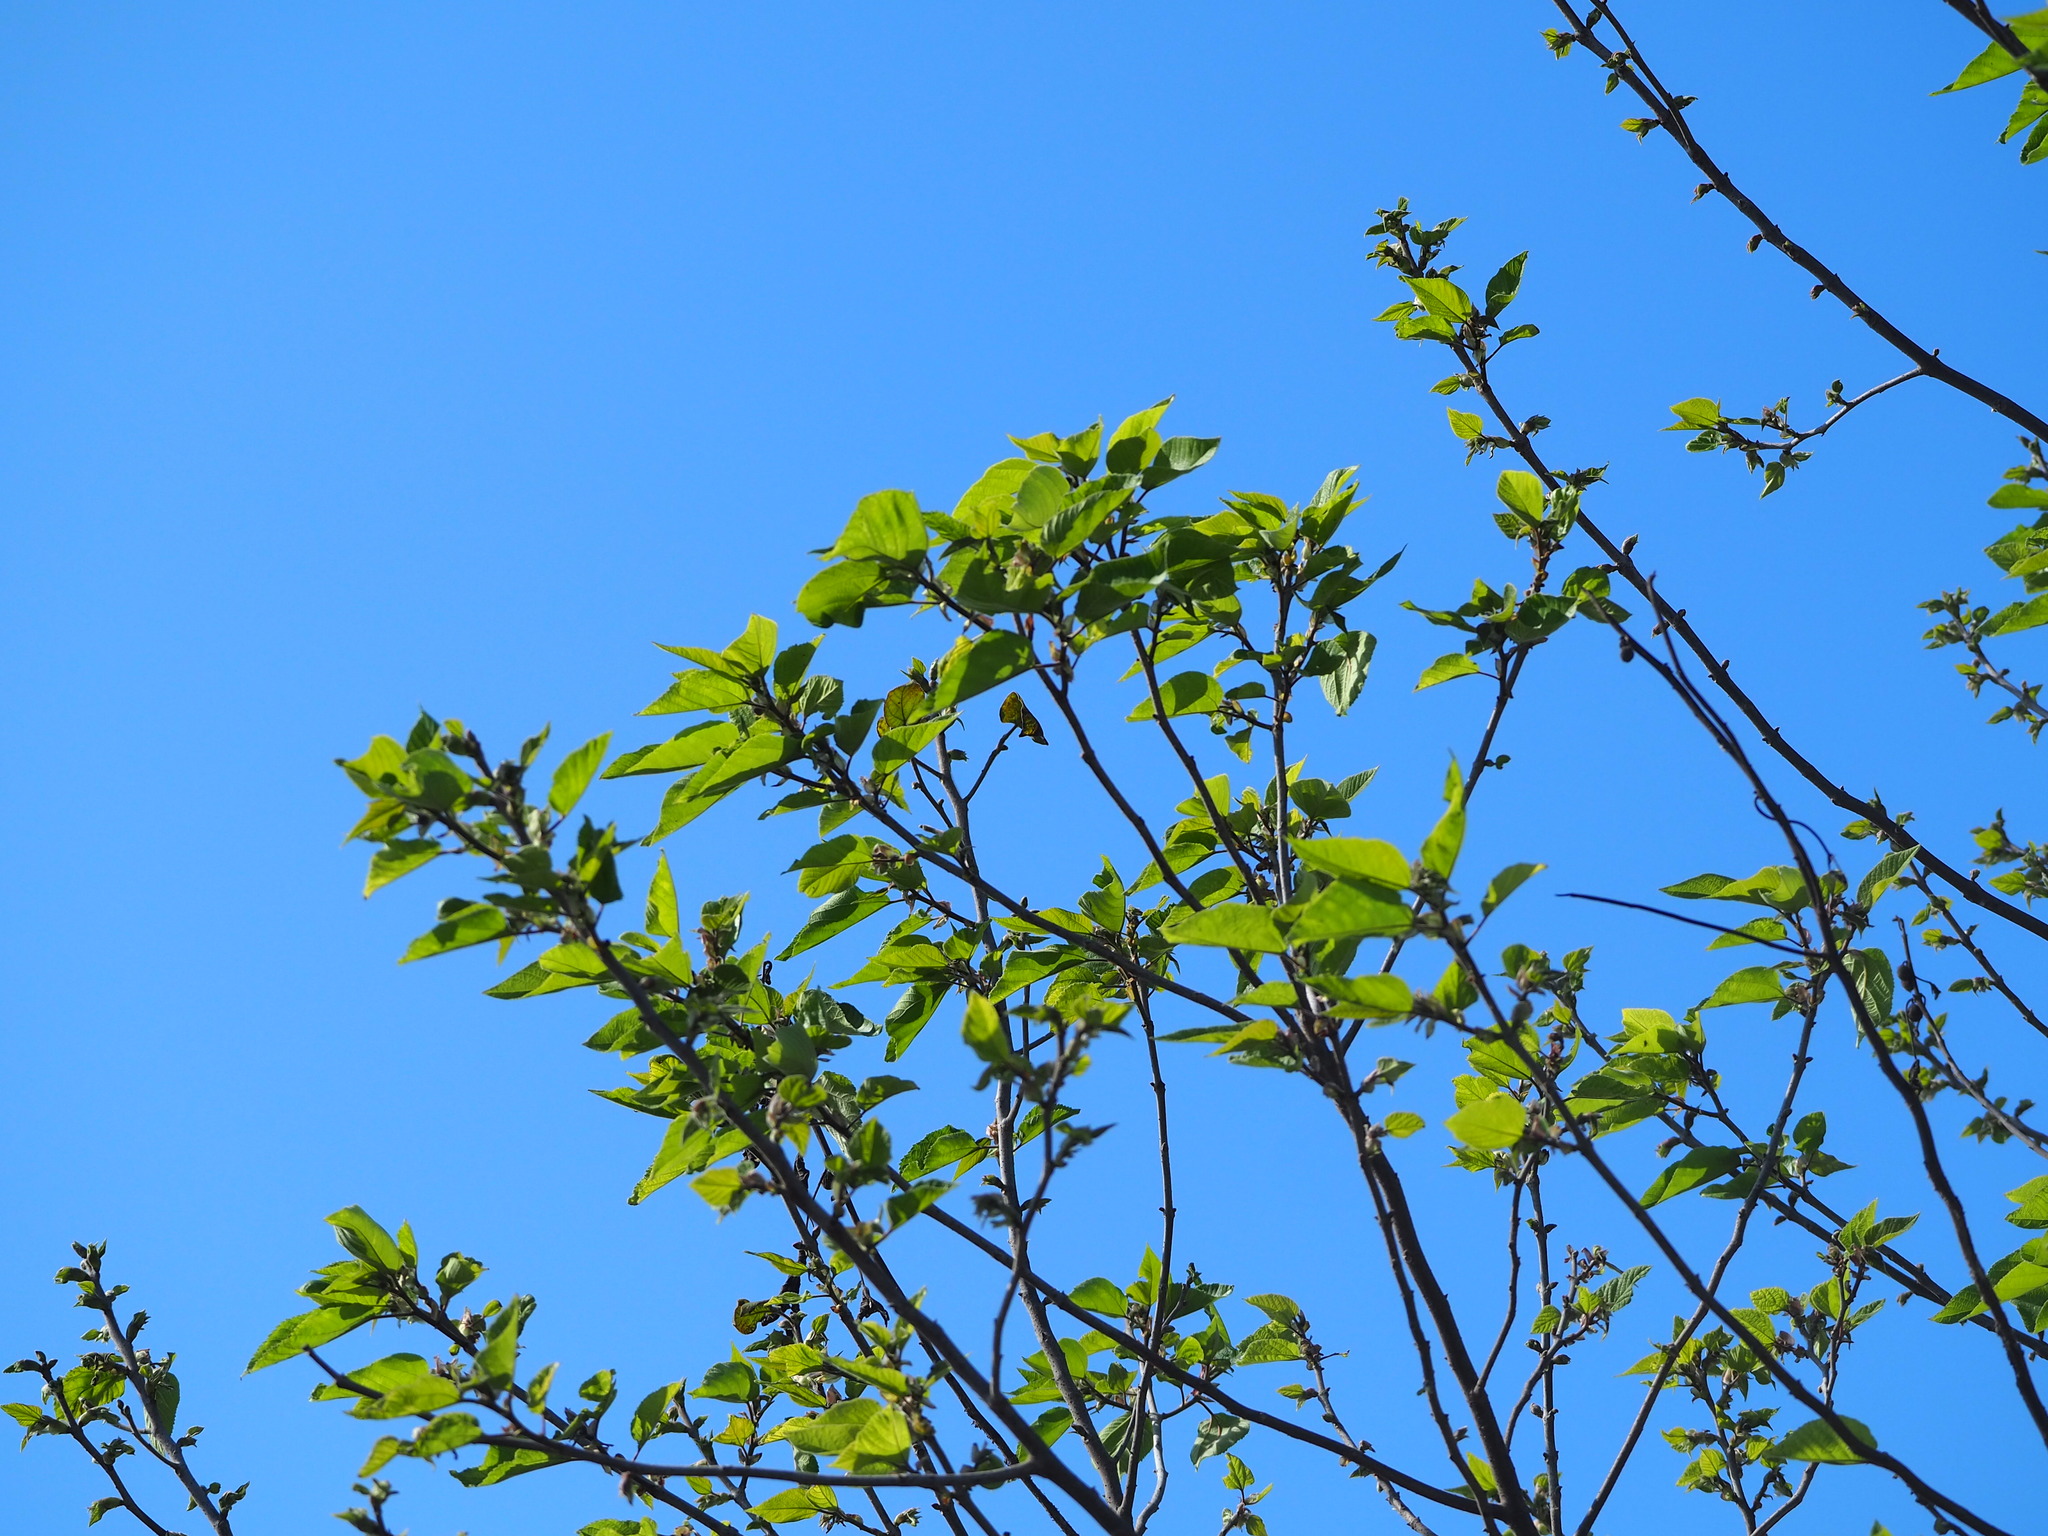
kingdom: Plantae
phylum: Tracheophyta
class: Magnoliopsida
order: Rosales
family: Moraceae
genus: Broussonetia
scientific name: Broussonetia papyrifera
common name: Paper mulberry
